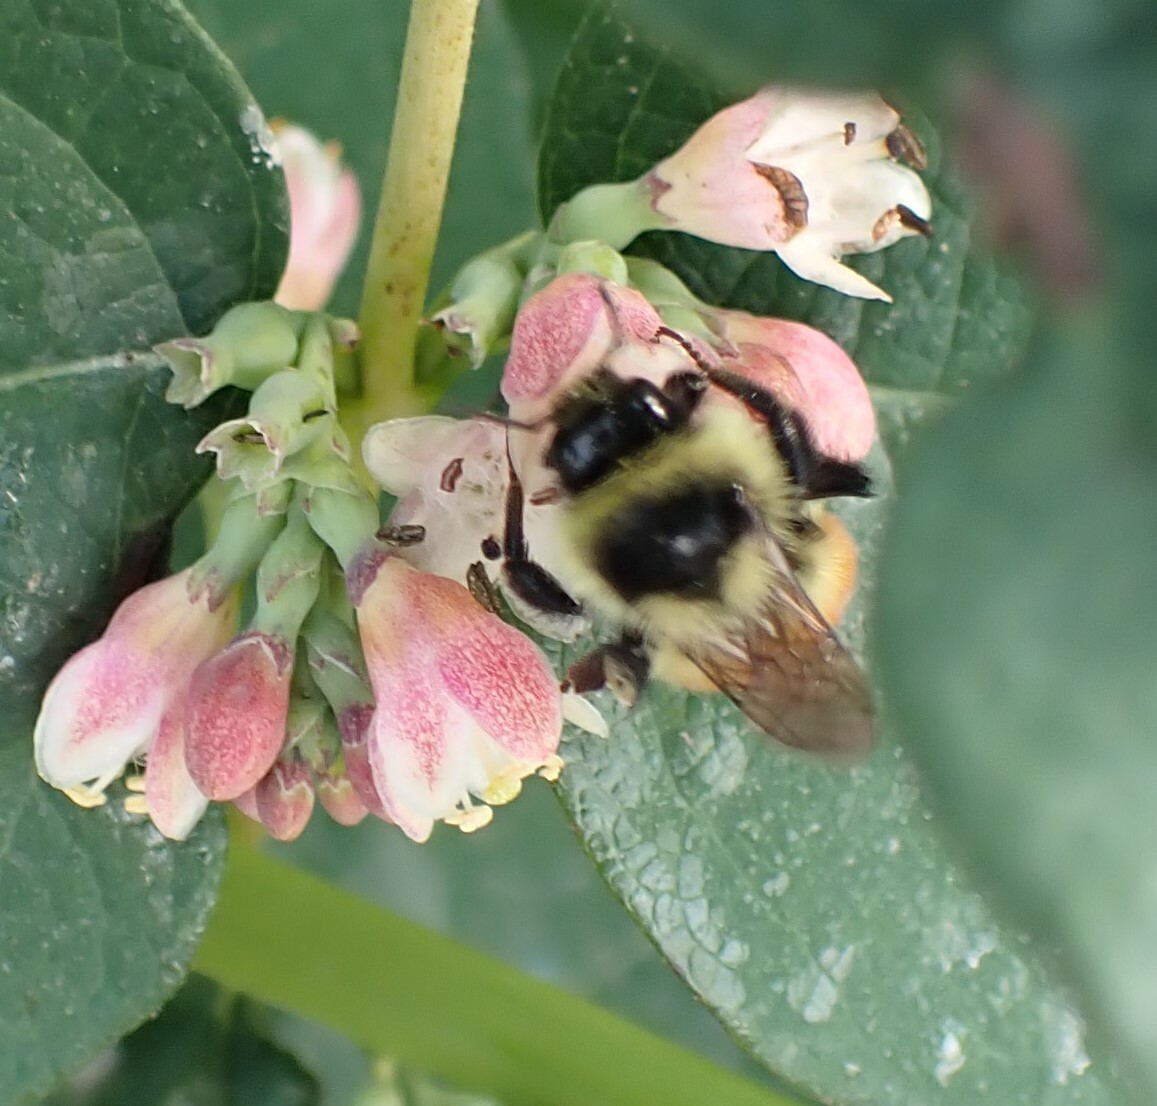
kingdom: Animalia
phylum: Arthropoda
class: Insecta
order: Hymenoptera
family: Apidae
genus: Bombus
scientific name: Bombus ternarius
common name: Tri-colored bumble bee
